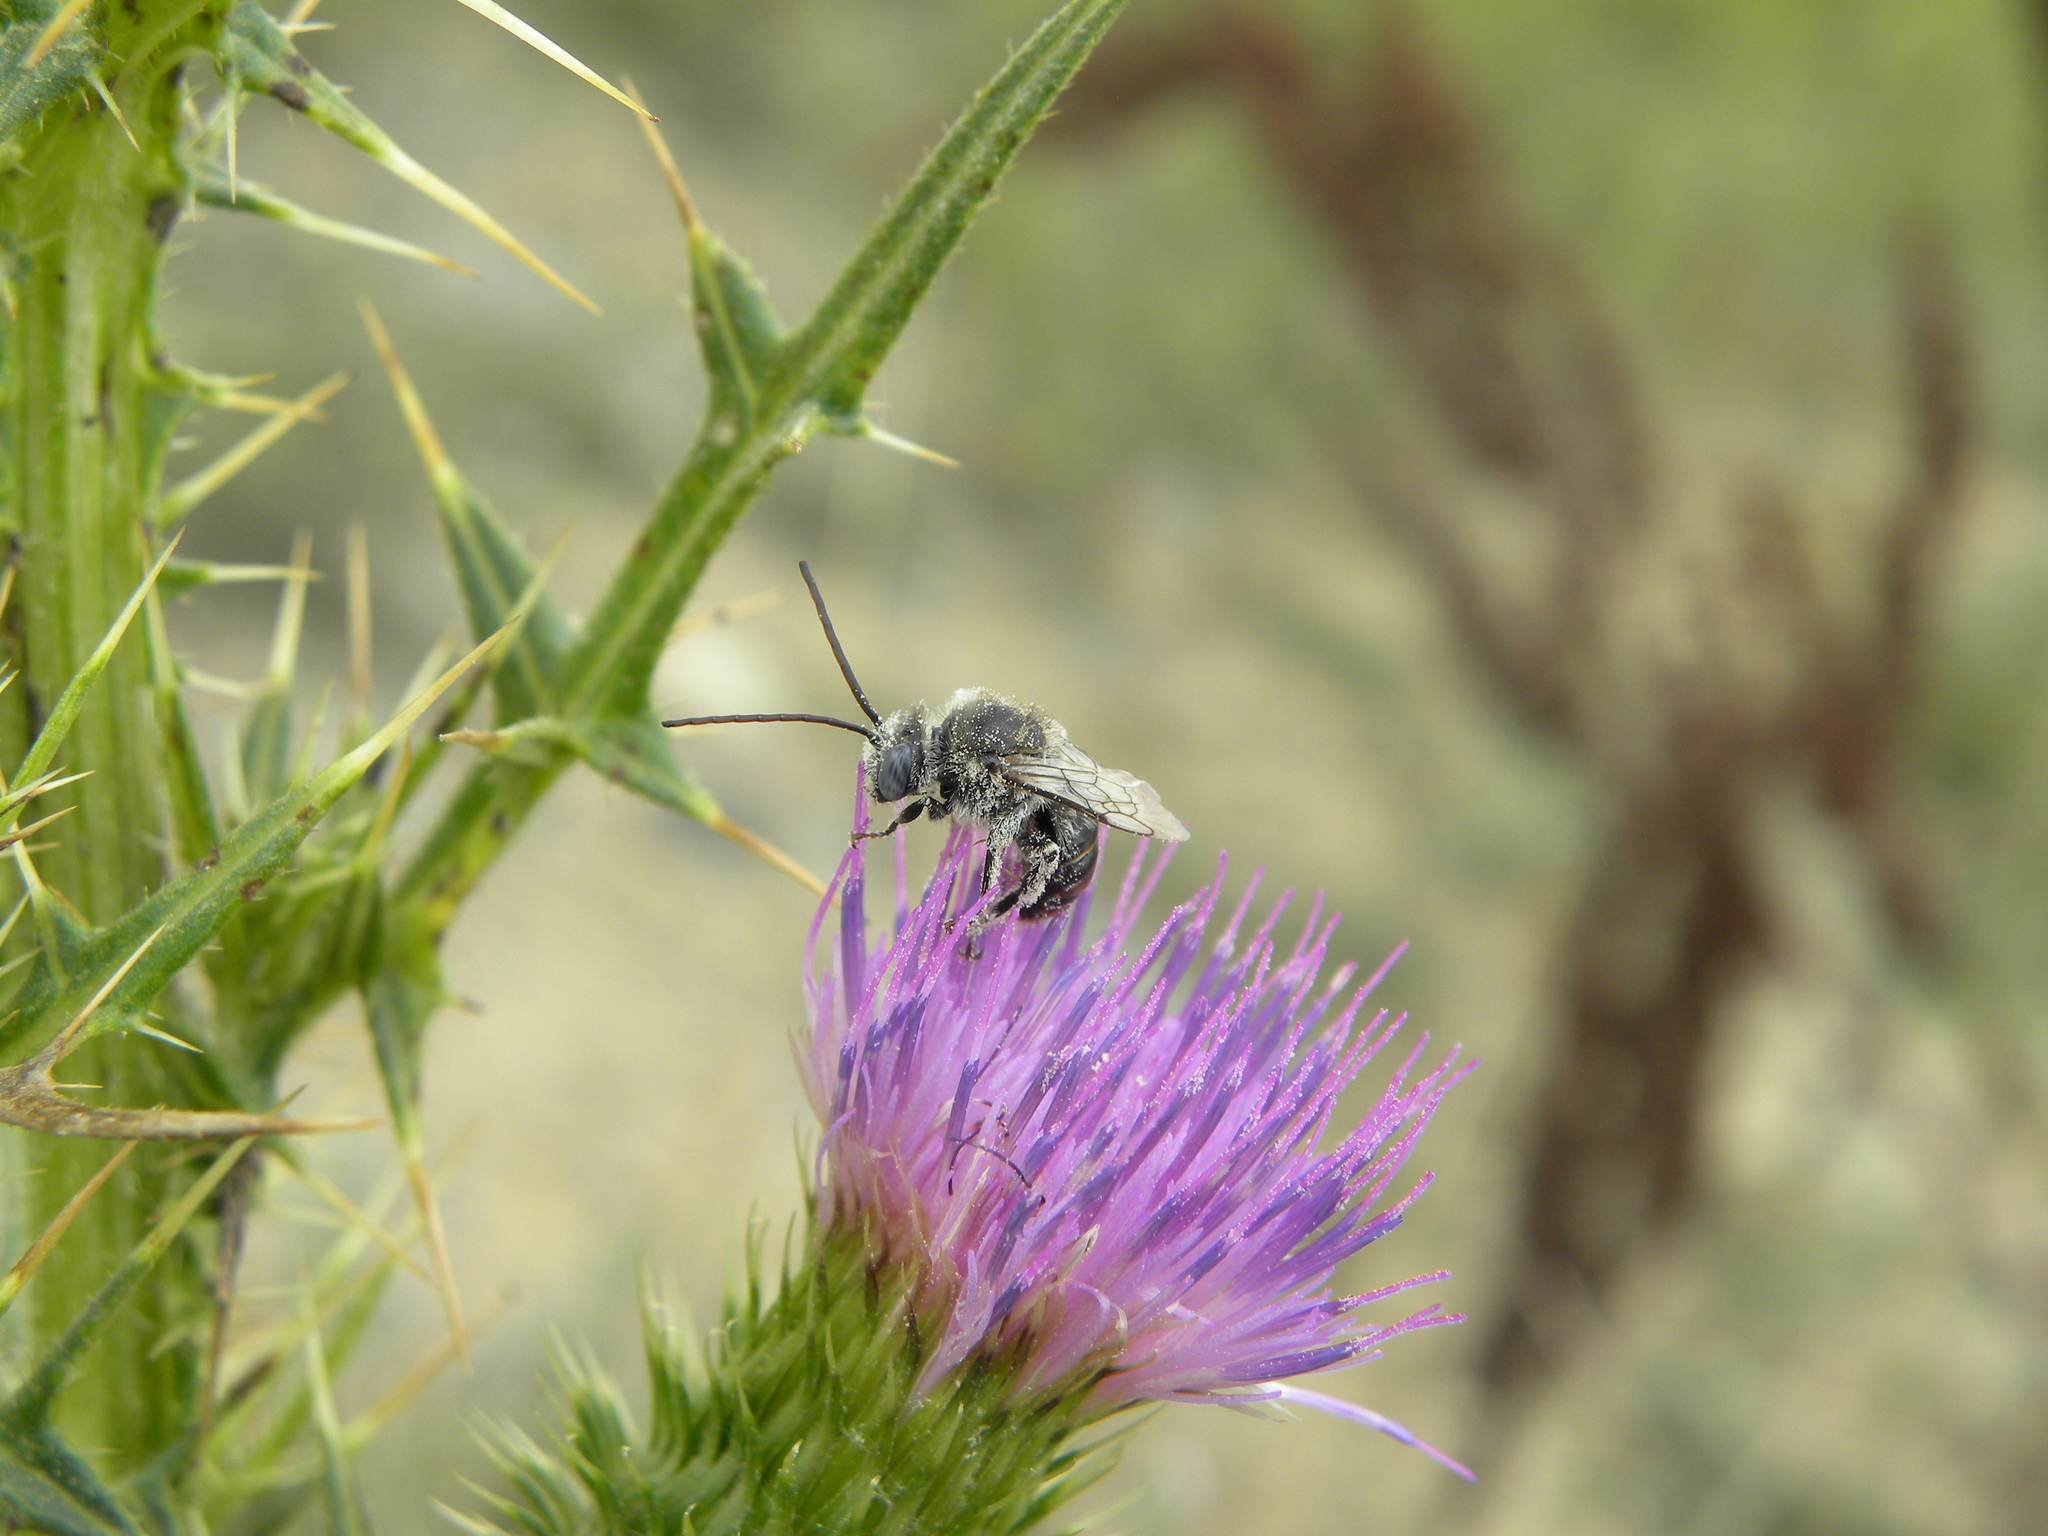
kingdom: Animalia
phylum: Arthropoda
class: Insecta
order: Hymenoptera
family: Apidae
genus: Melissodes
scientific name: Melissodes
